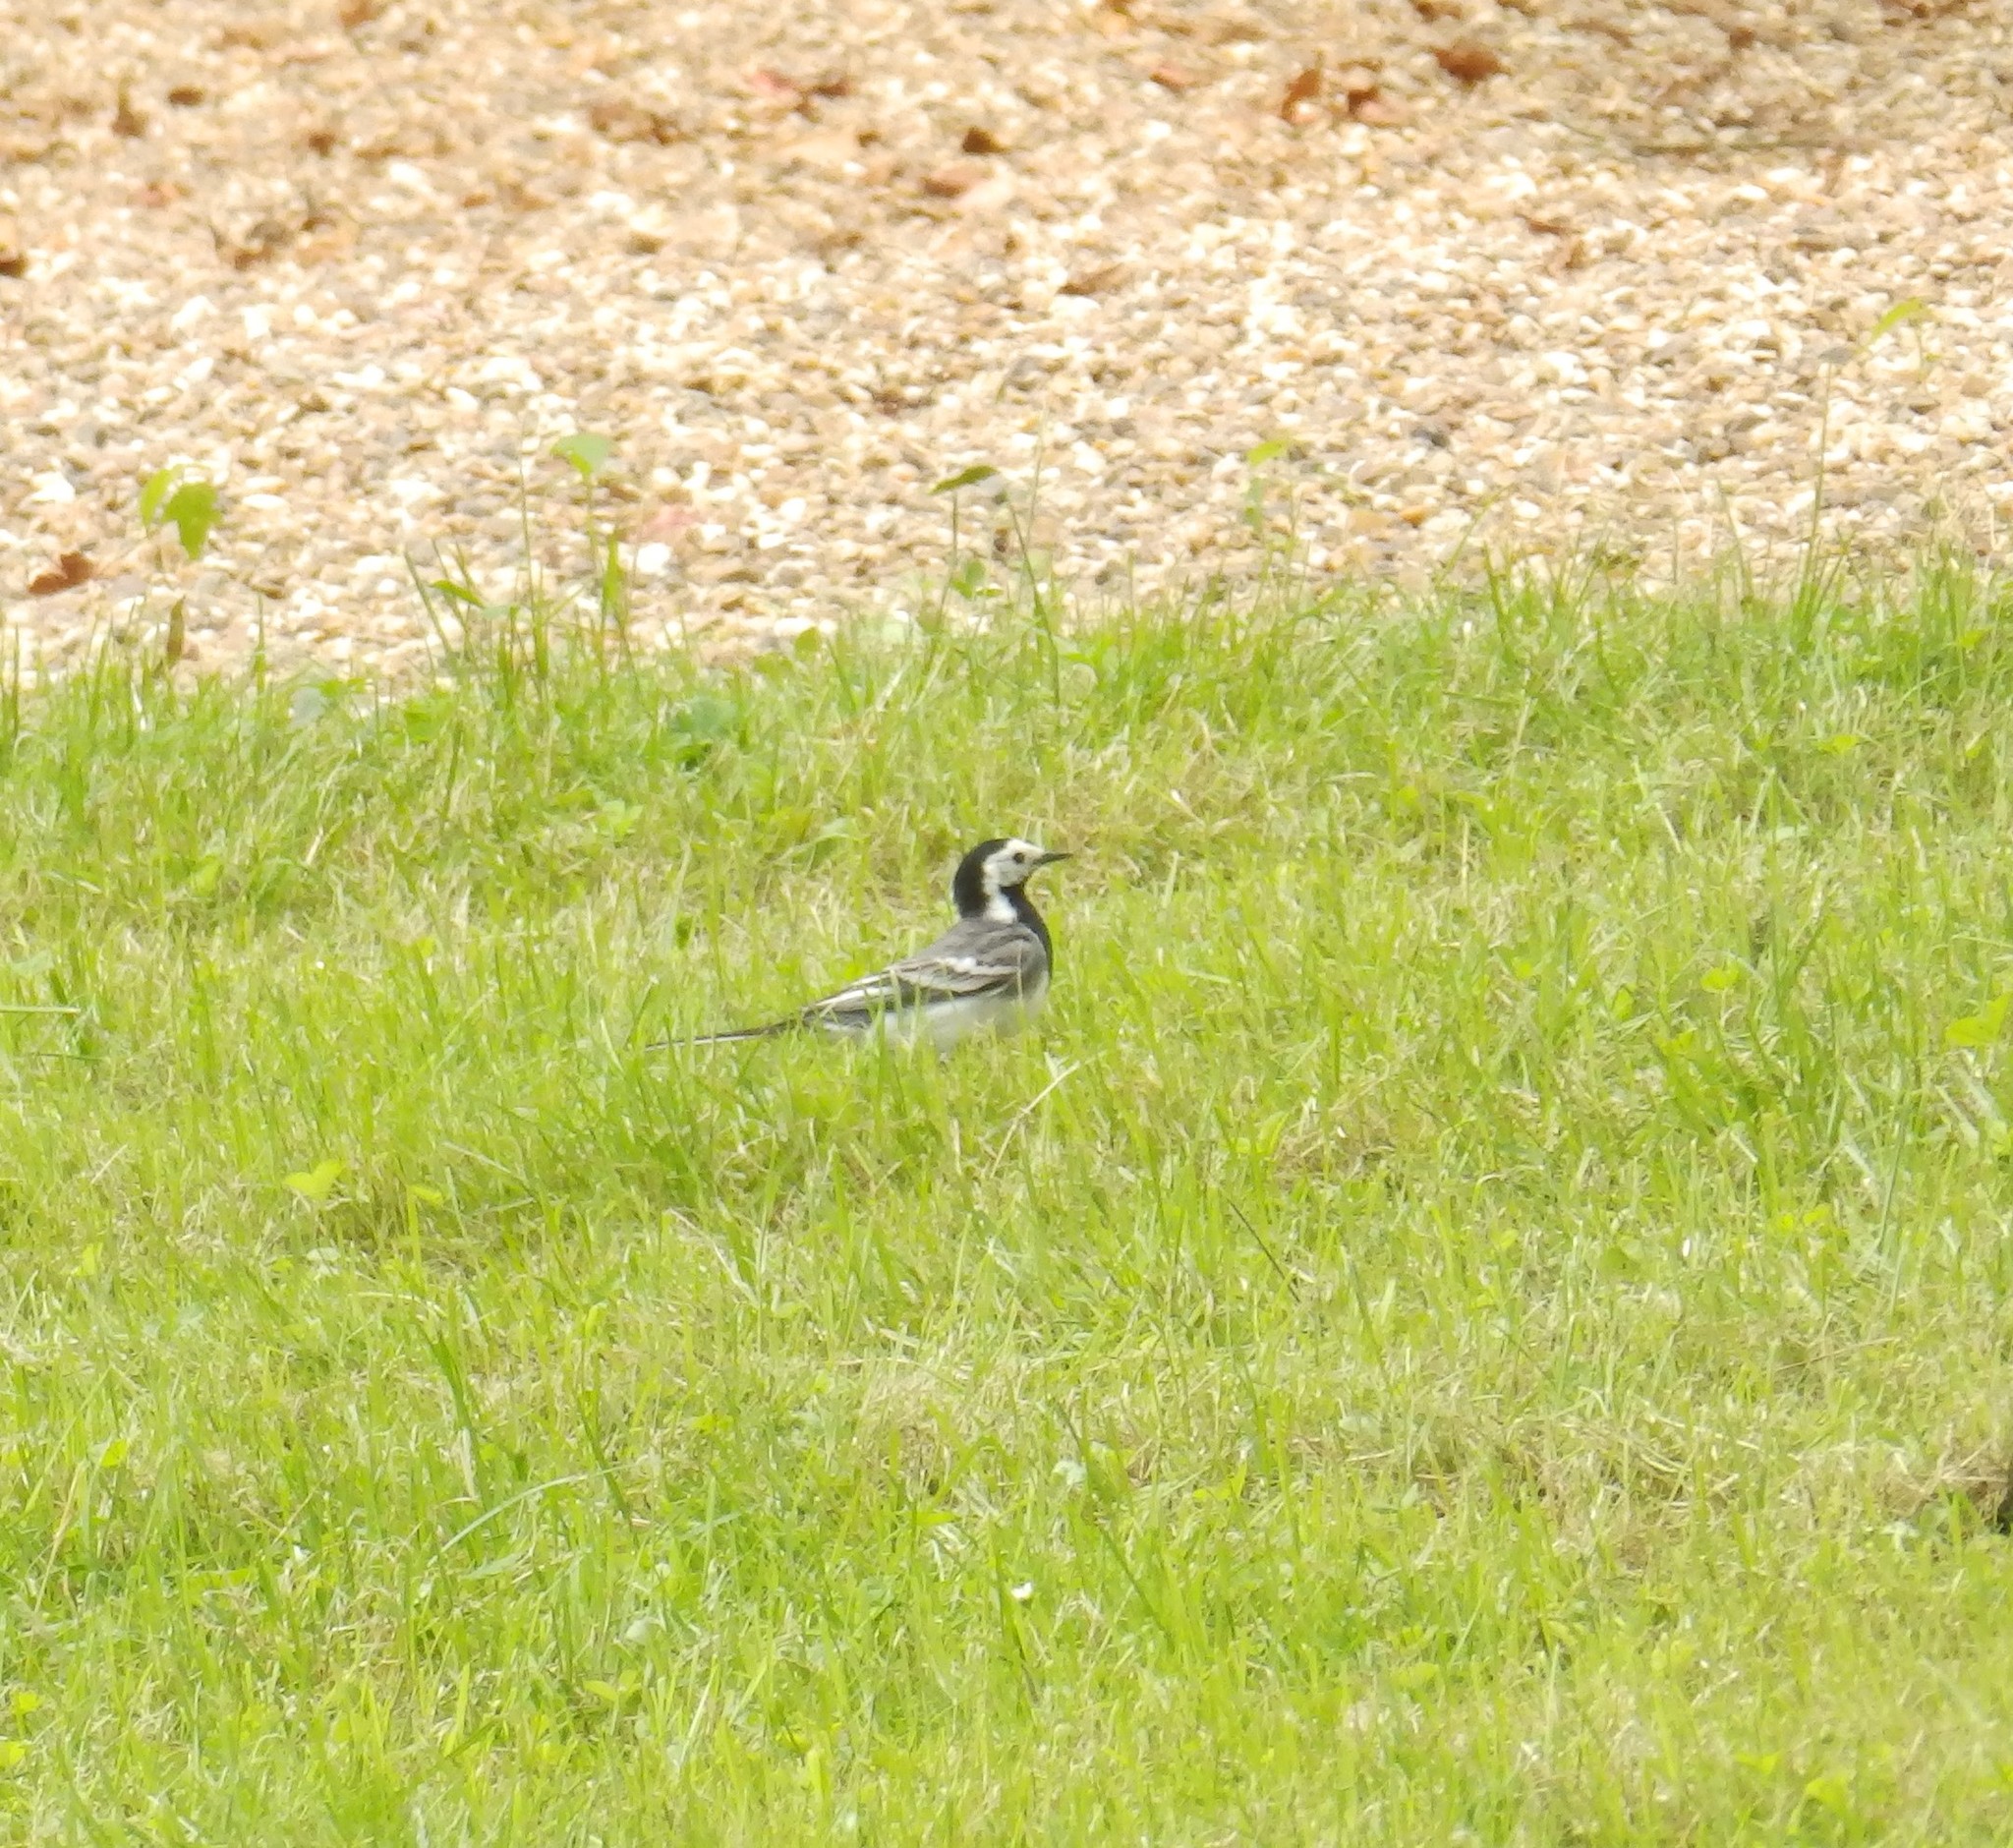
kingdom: Animalia
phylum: Chordata
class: Aves
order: Passeriformes
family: Motacillidae
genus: Motacilla
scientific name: Motacilla alba
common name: White wagtail
